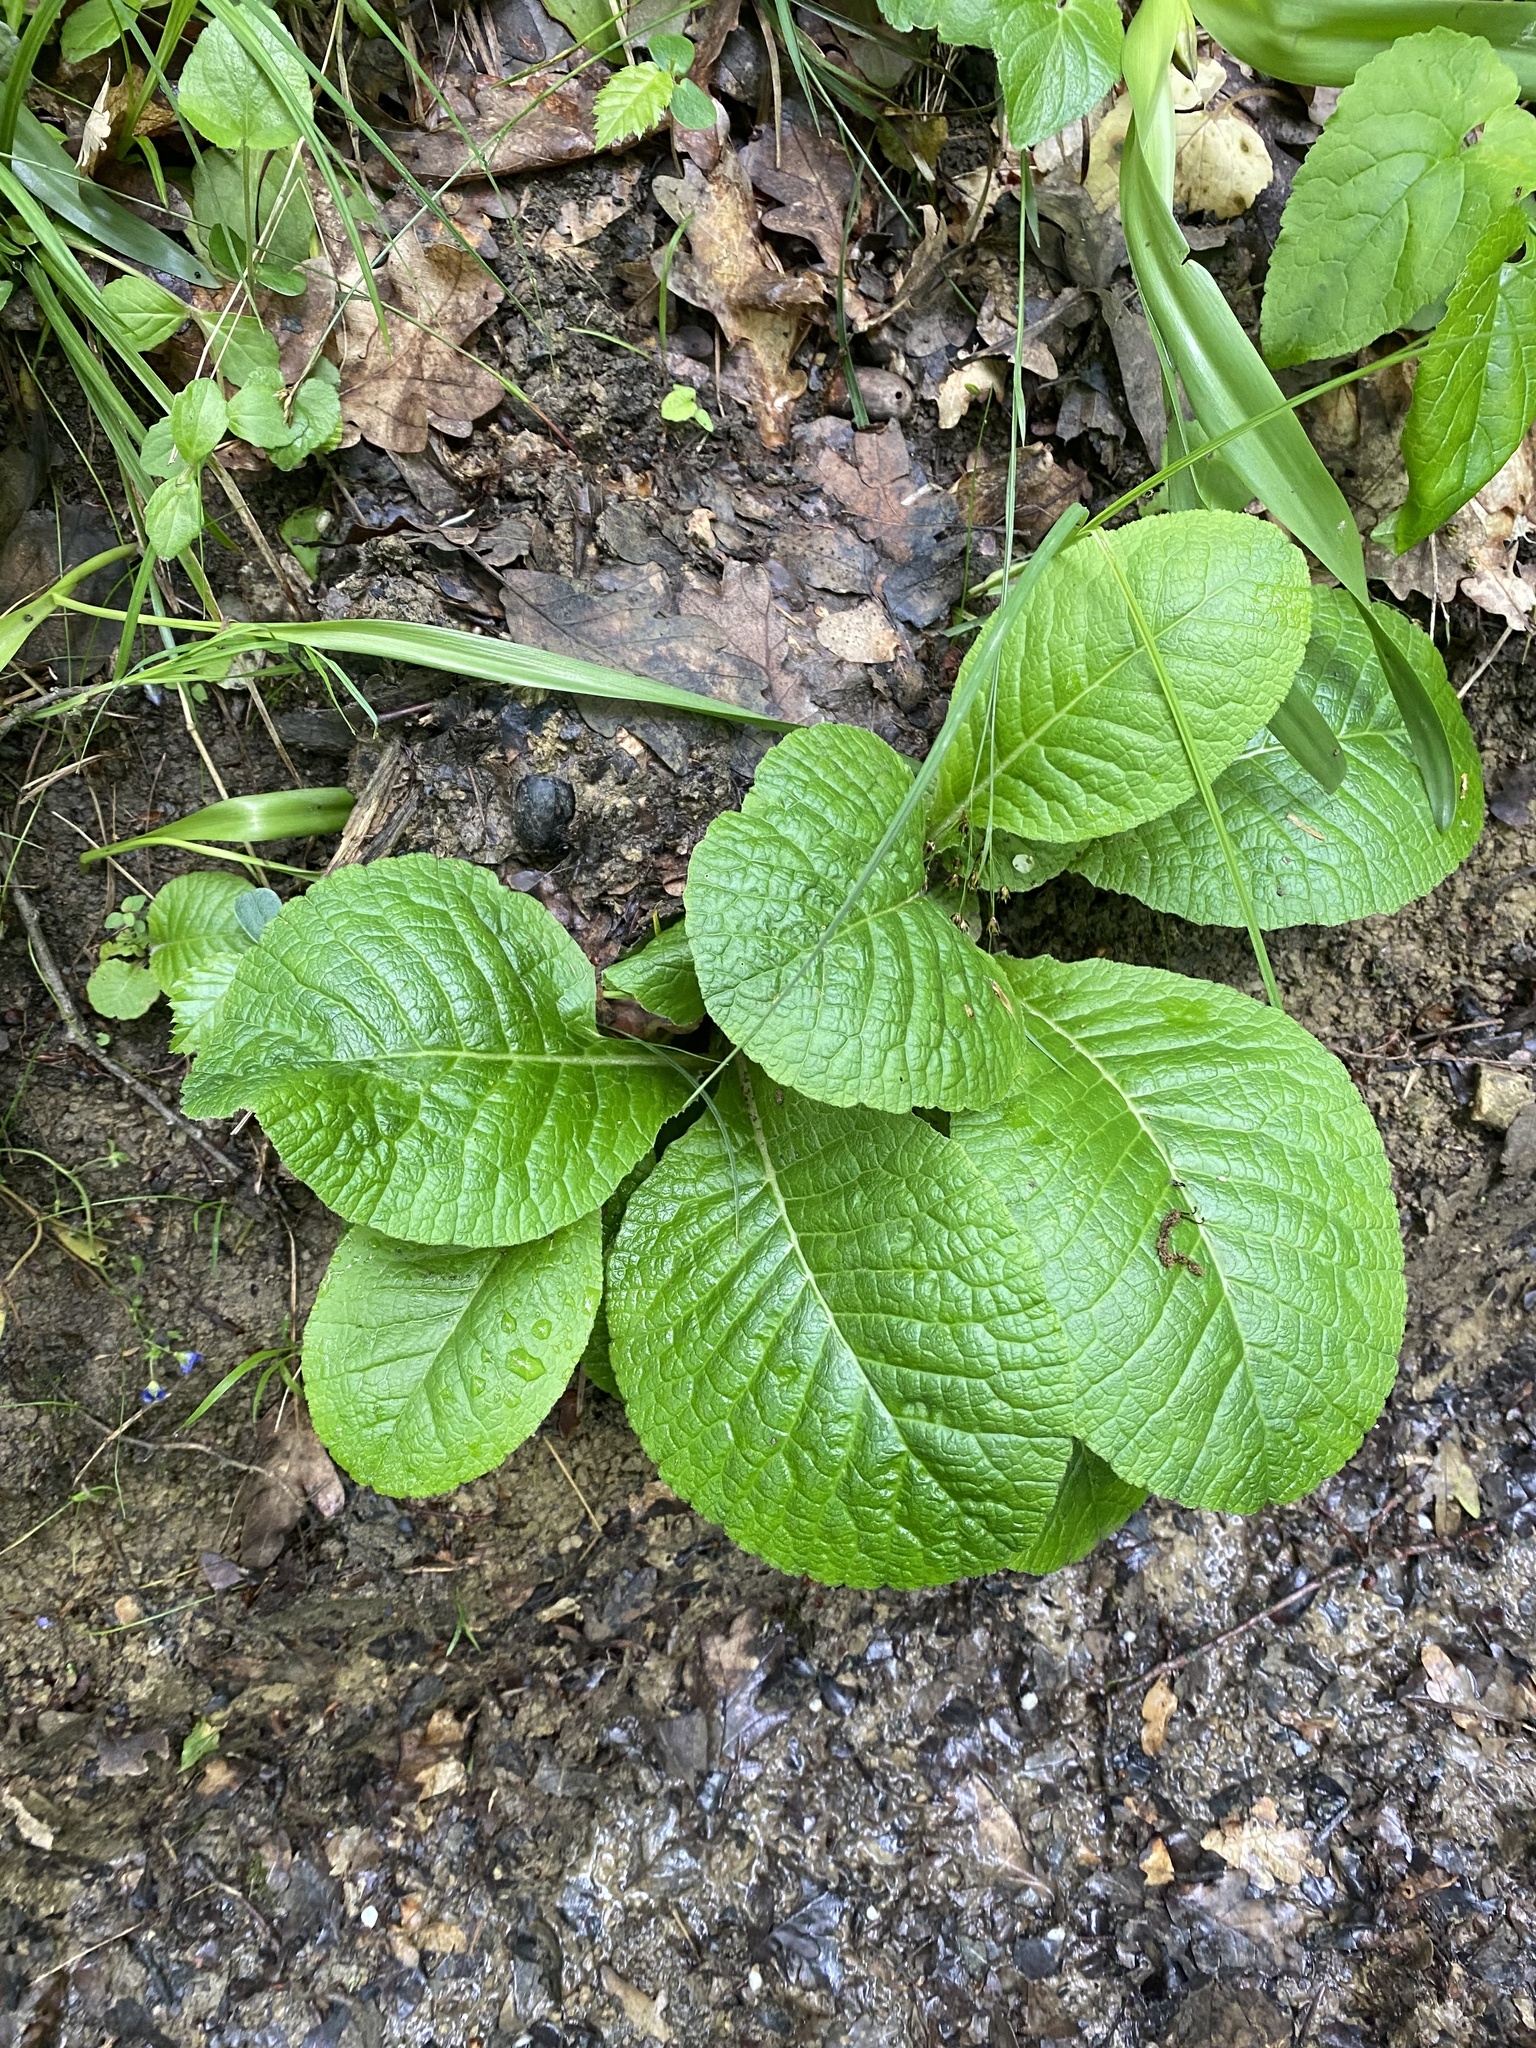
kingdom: Plantae
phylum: Tracheophyta
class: Magnoliopsida
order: Ericales
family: Primulaceae
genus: Primula
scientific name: Primula vulgaris
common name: Primrose
